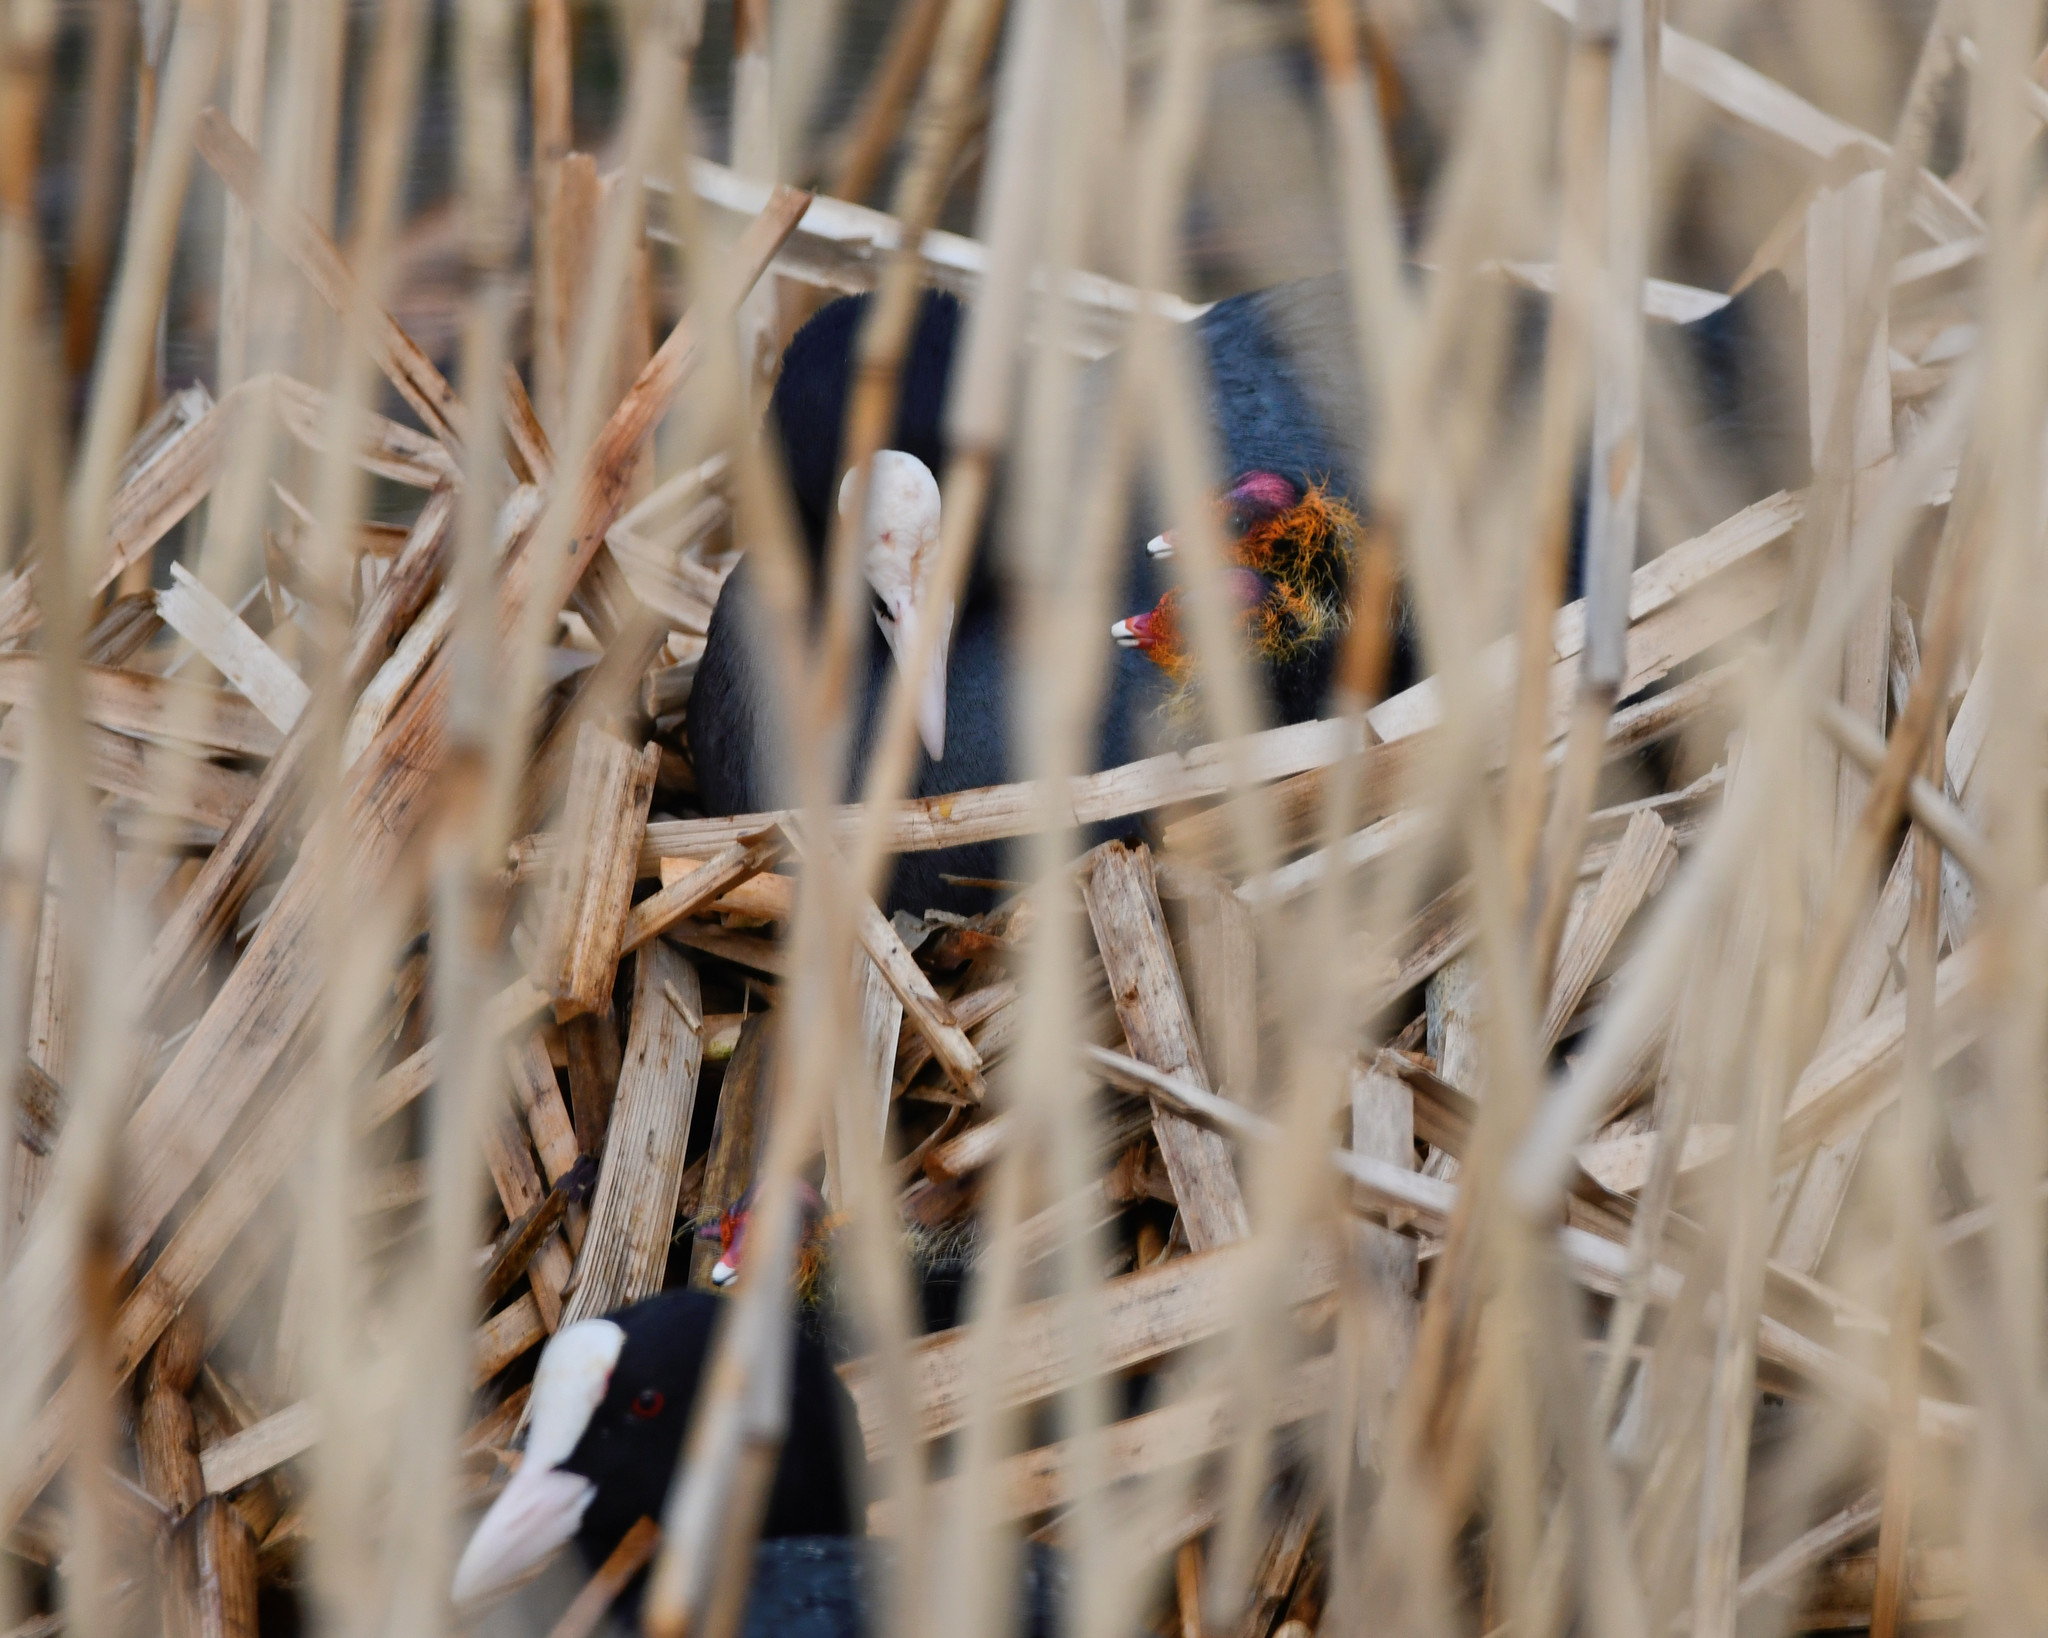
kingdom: Animalia
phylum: Chordata
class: Aves
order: Gruiformes
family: Rallidae
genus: Fulica
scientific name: Fulica atra
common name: Eurasian coot
